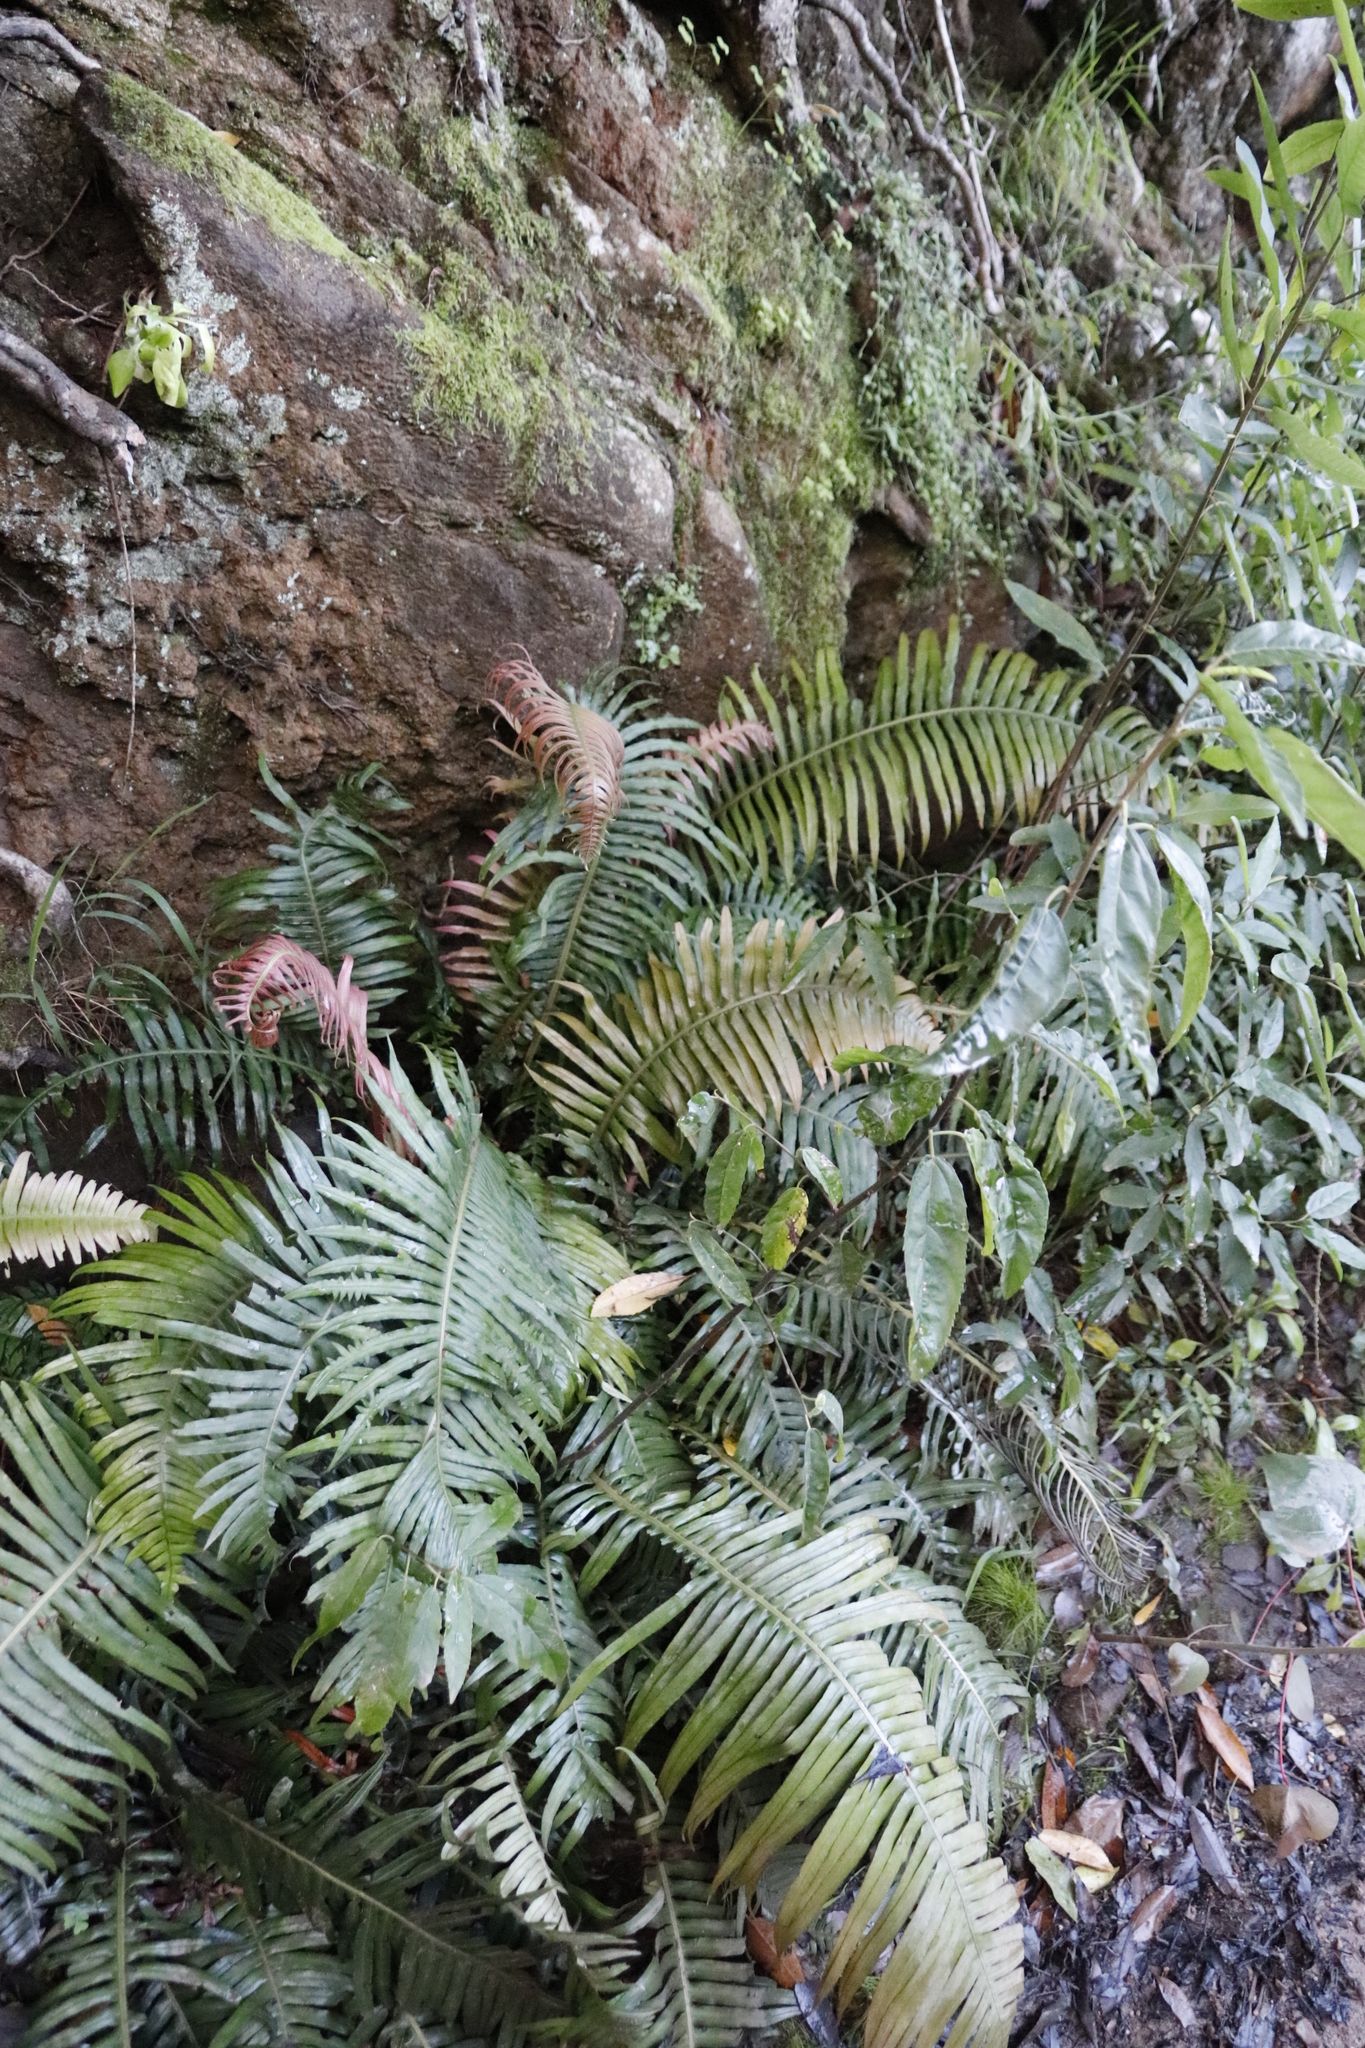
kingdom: Plantae
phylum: Tracheophyta
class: Polypodiopsida
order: Polypodiales
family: Blechnaceae
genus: Lomaridium
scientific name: Lomaridium attenuatum
